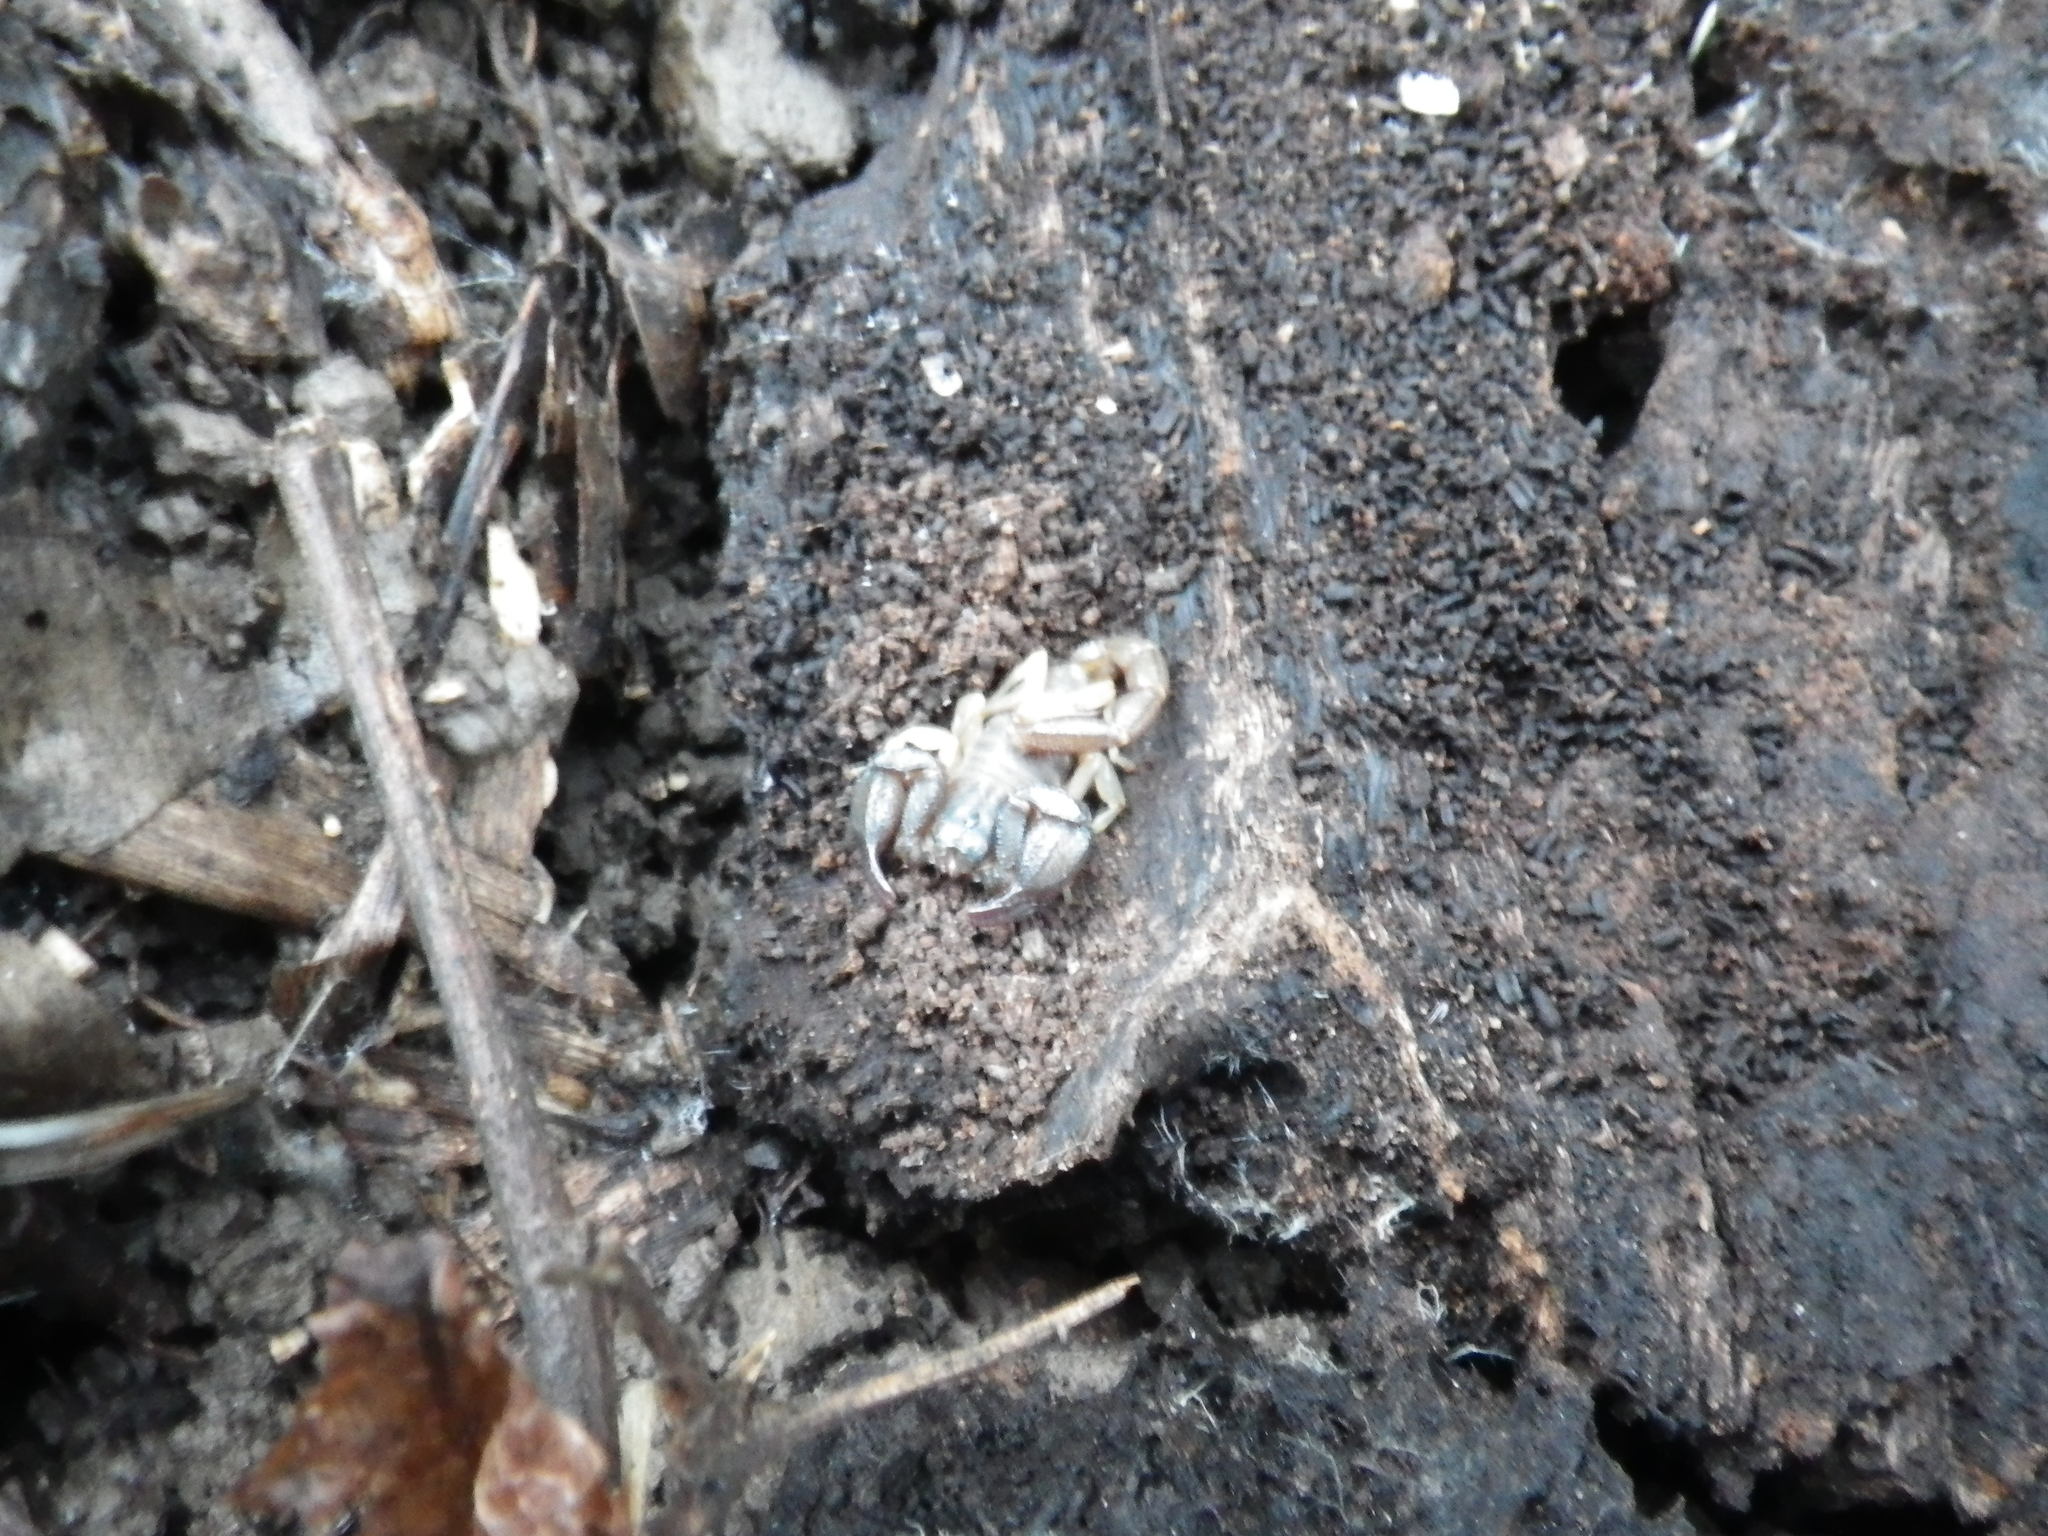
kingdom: Animalia
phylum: Arthropoda
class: Arachnida
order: Scorpiones
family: Chactidae
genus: Uroctonus
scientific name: Uroctonus mordax
